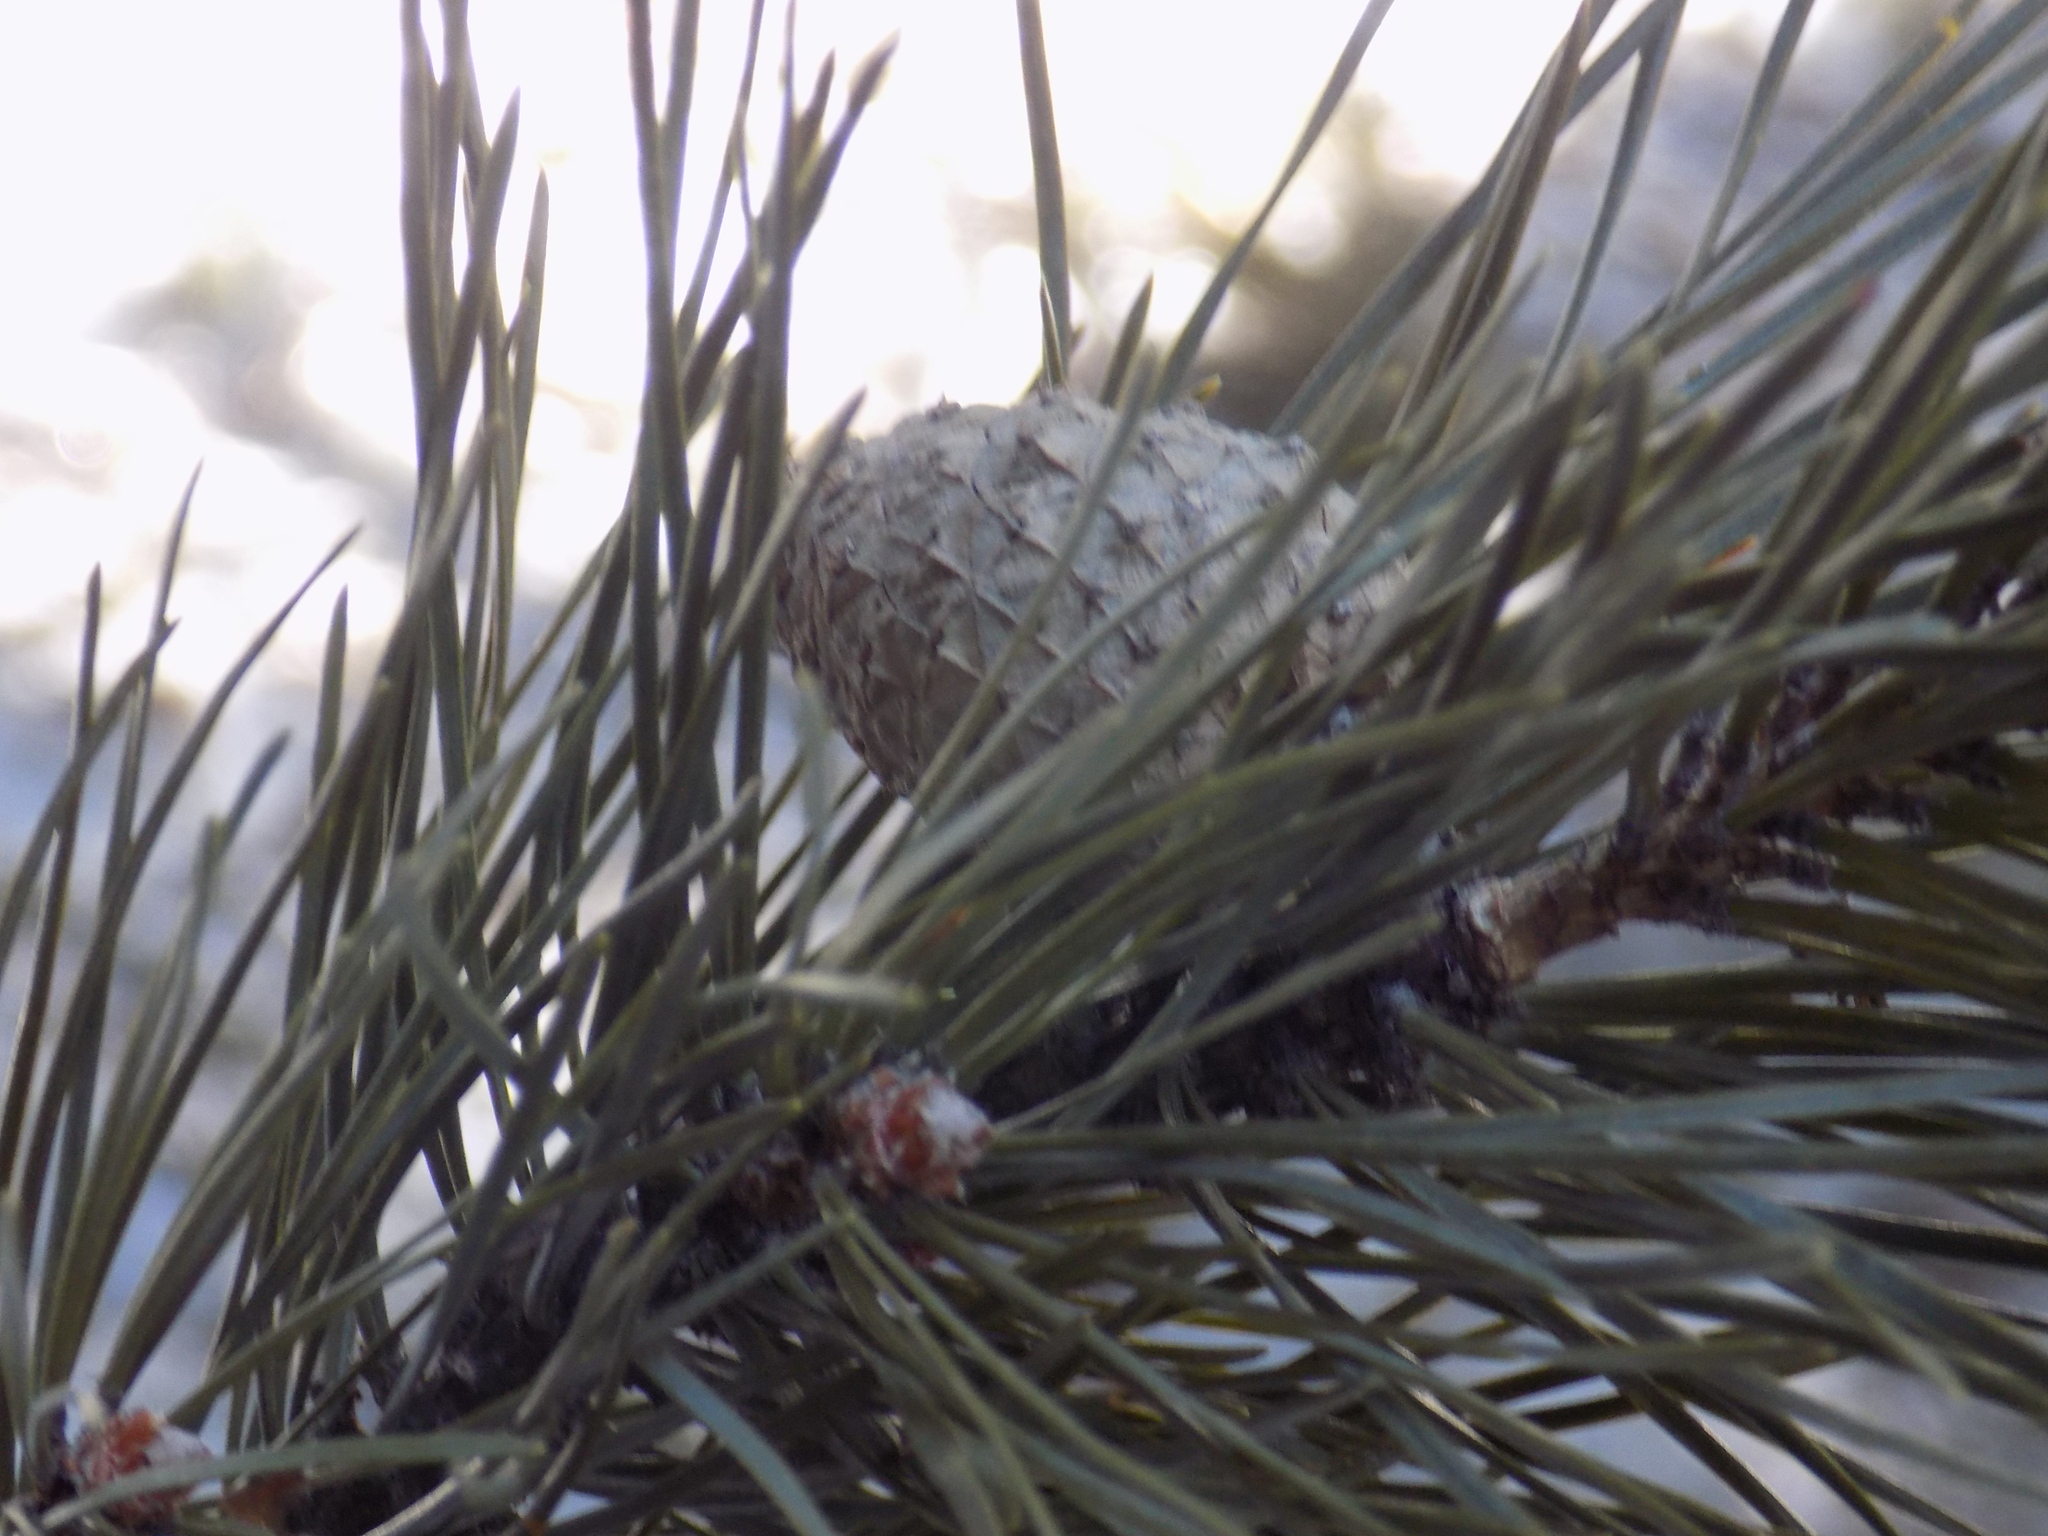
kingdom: Plantae
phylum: Tracheophyta
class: Pinopsida
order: Pinales
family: Pinaceae
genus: Pinus
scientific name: Pinus sylvestris
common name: Scots pine
